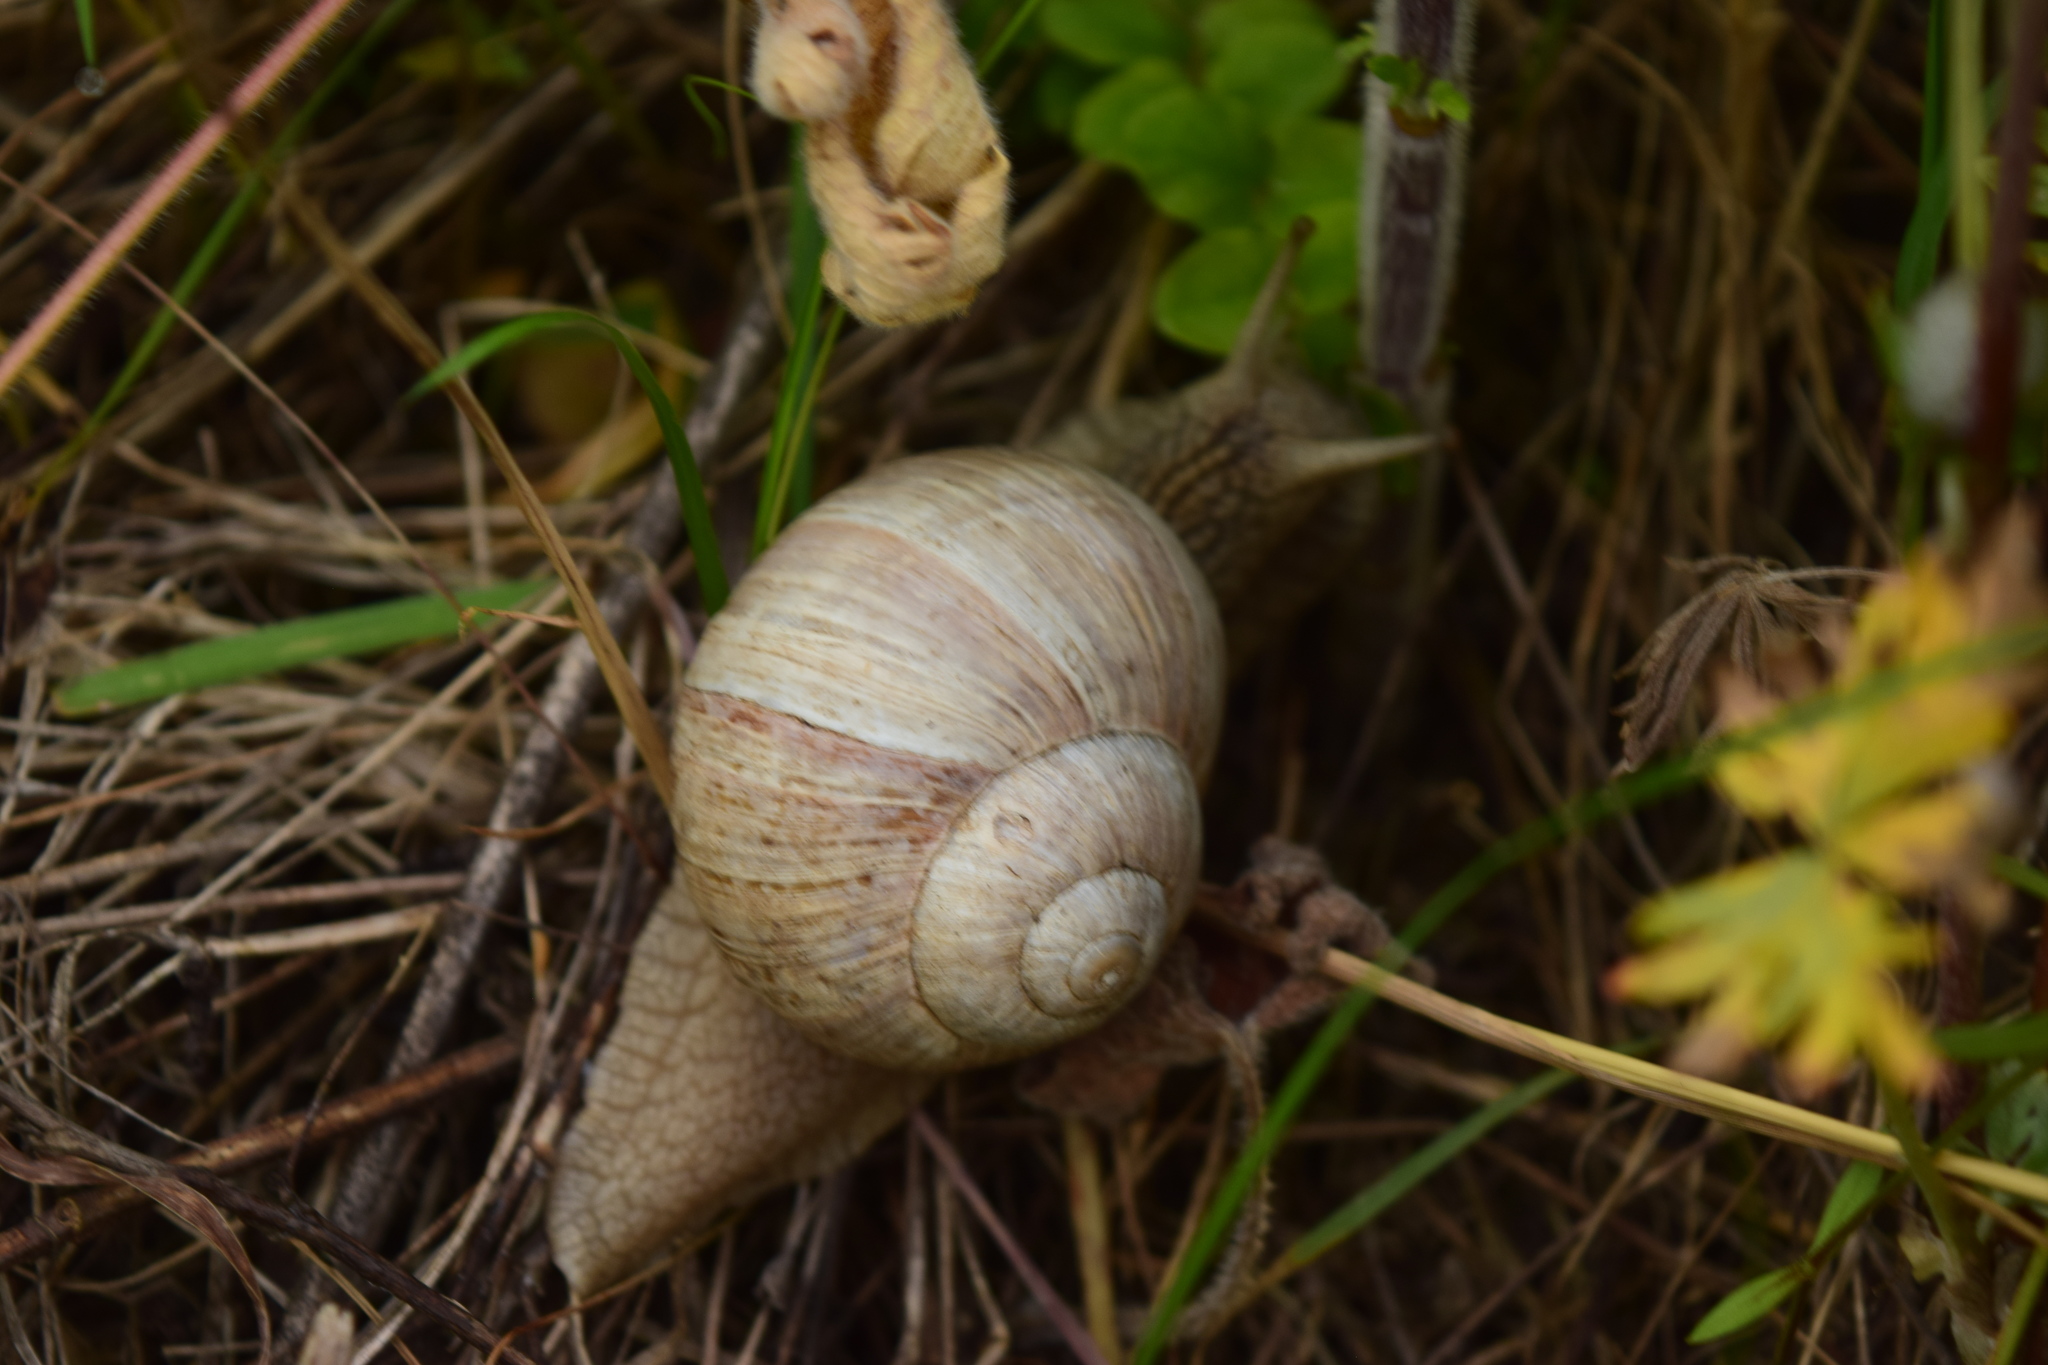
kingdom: Animalia
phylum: Mollusca
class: Gastropoda
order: Stylommatophora
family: Helicidae
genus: Helix
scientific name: Helix pomatia
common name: Roman snail
